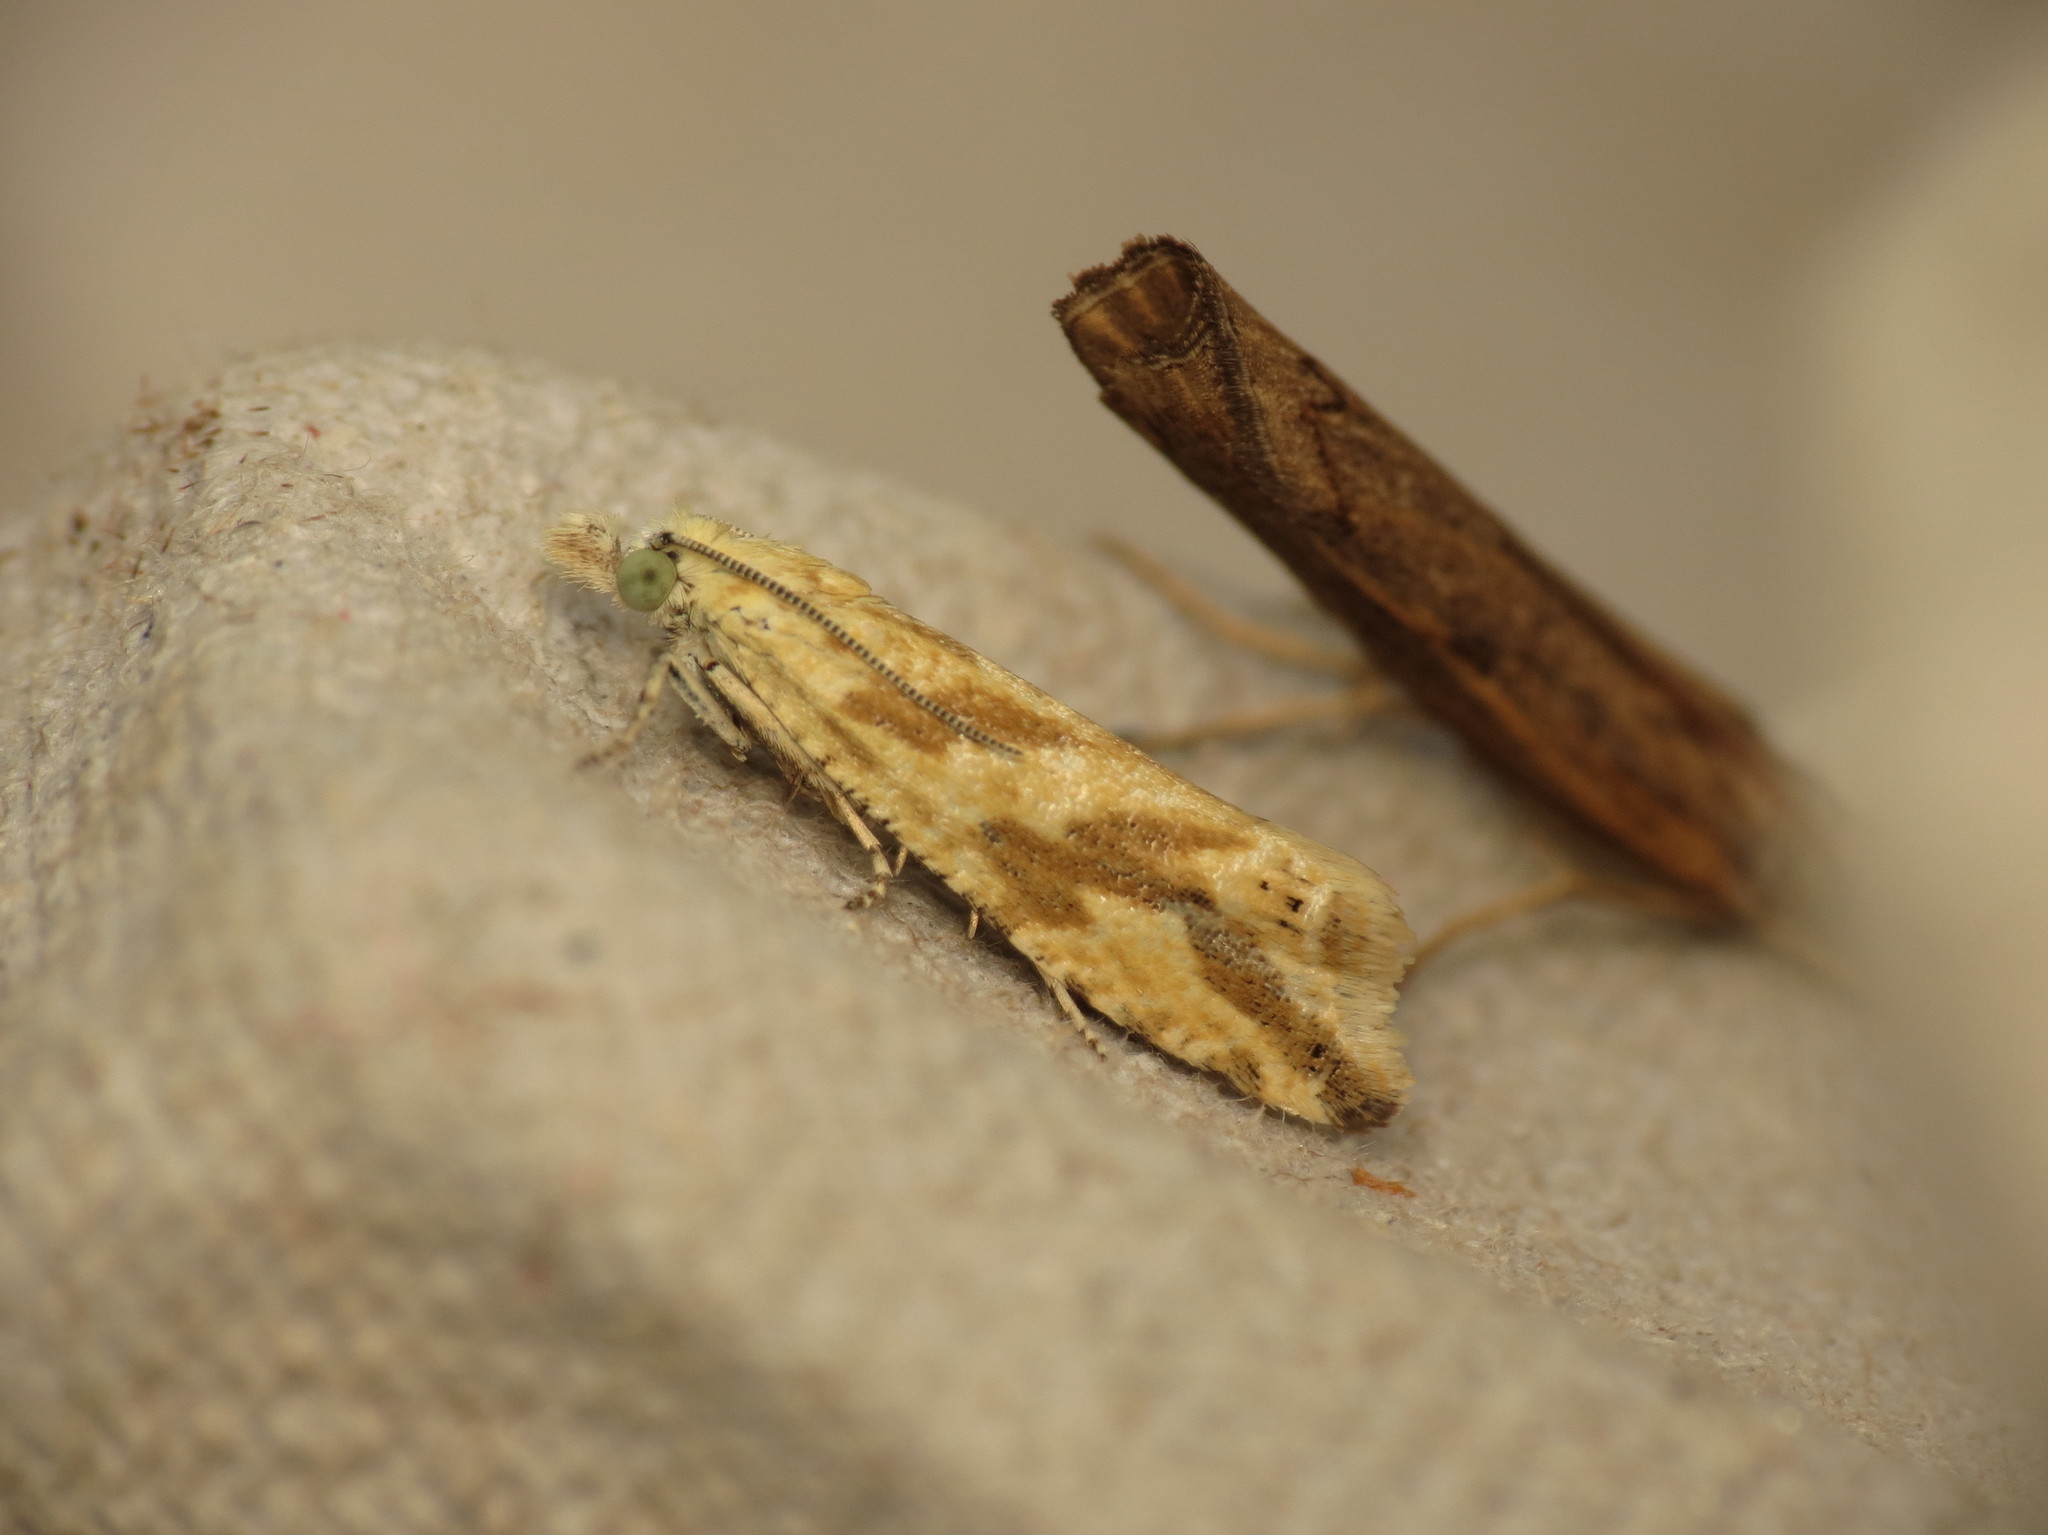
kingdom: Animalia
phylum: Arthropoda
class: Insecta
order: Lepidoptera
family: Tortricidae
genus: Thiodia
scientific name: Thiodia citrana
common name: Lemon bell
